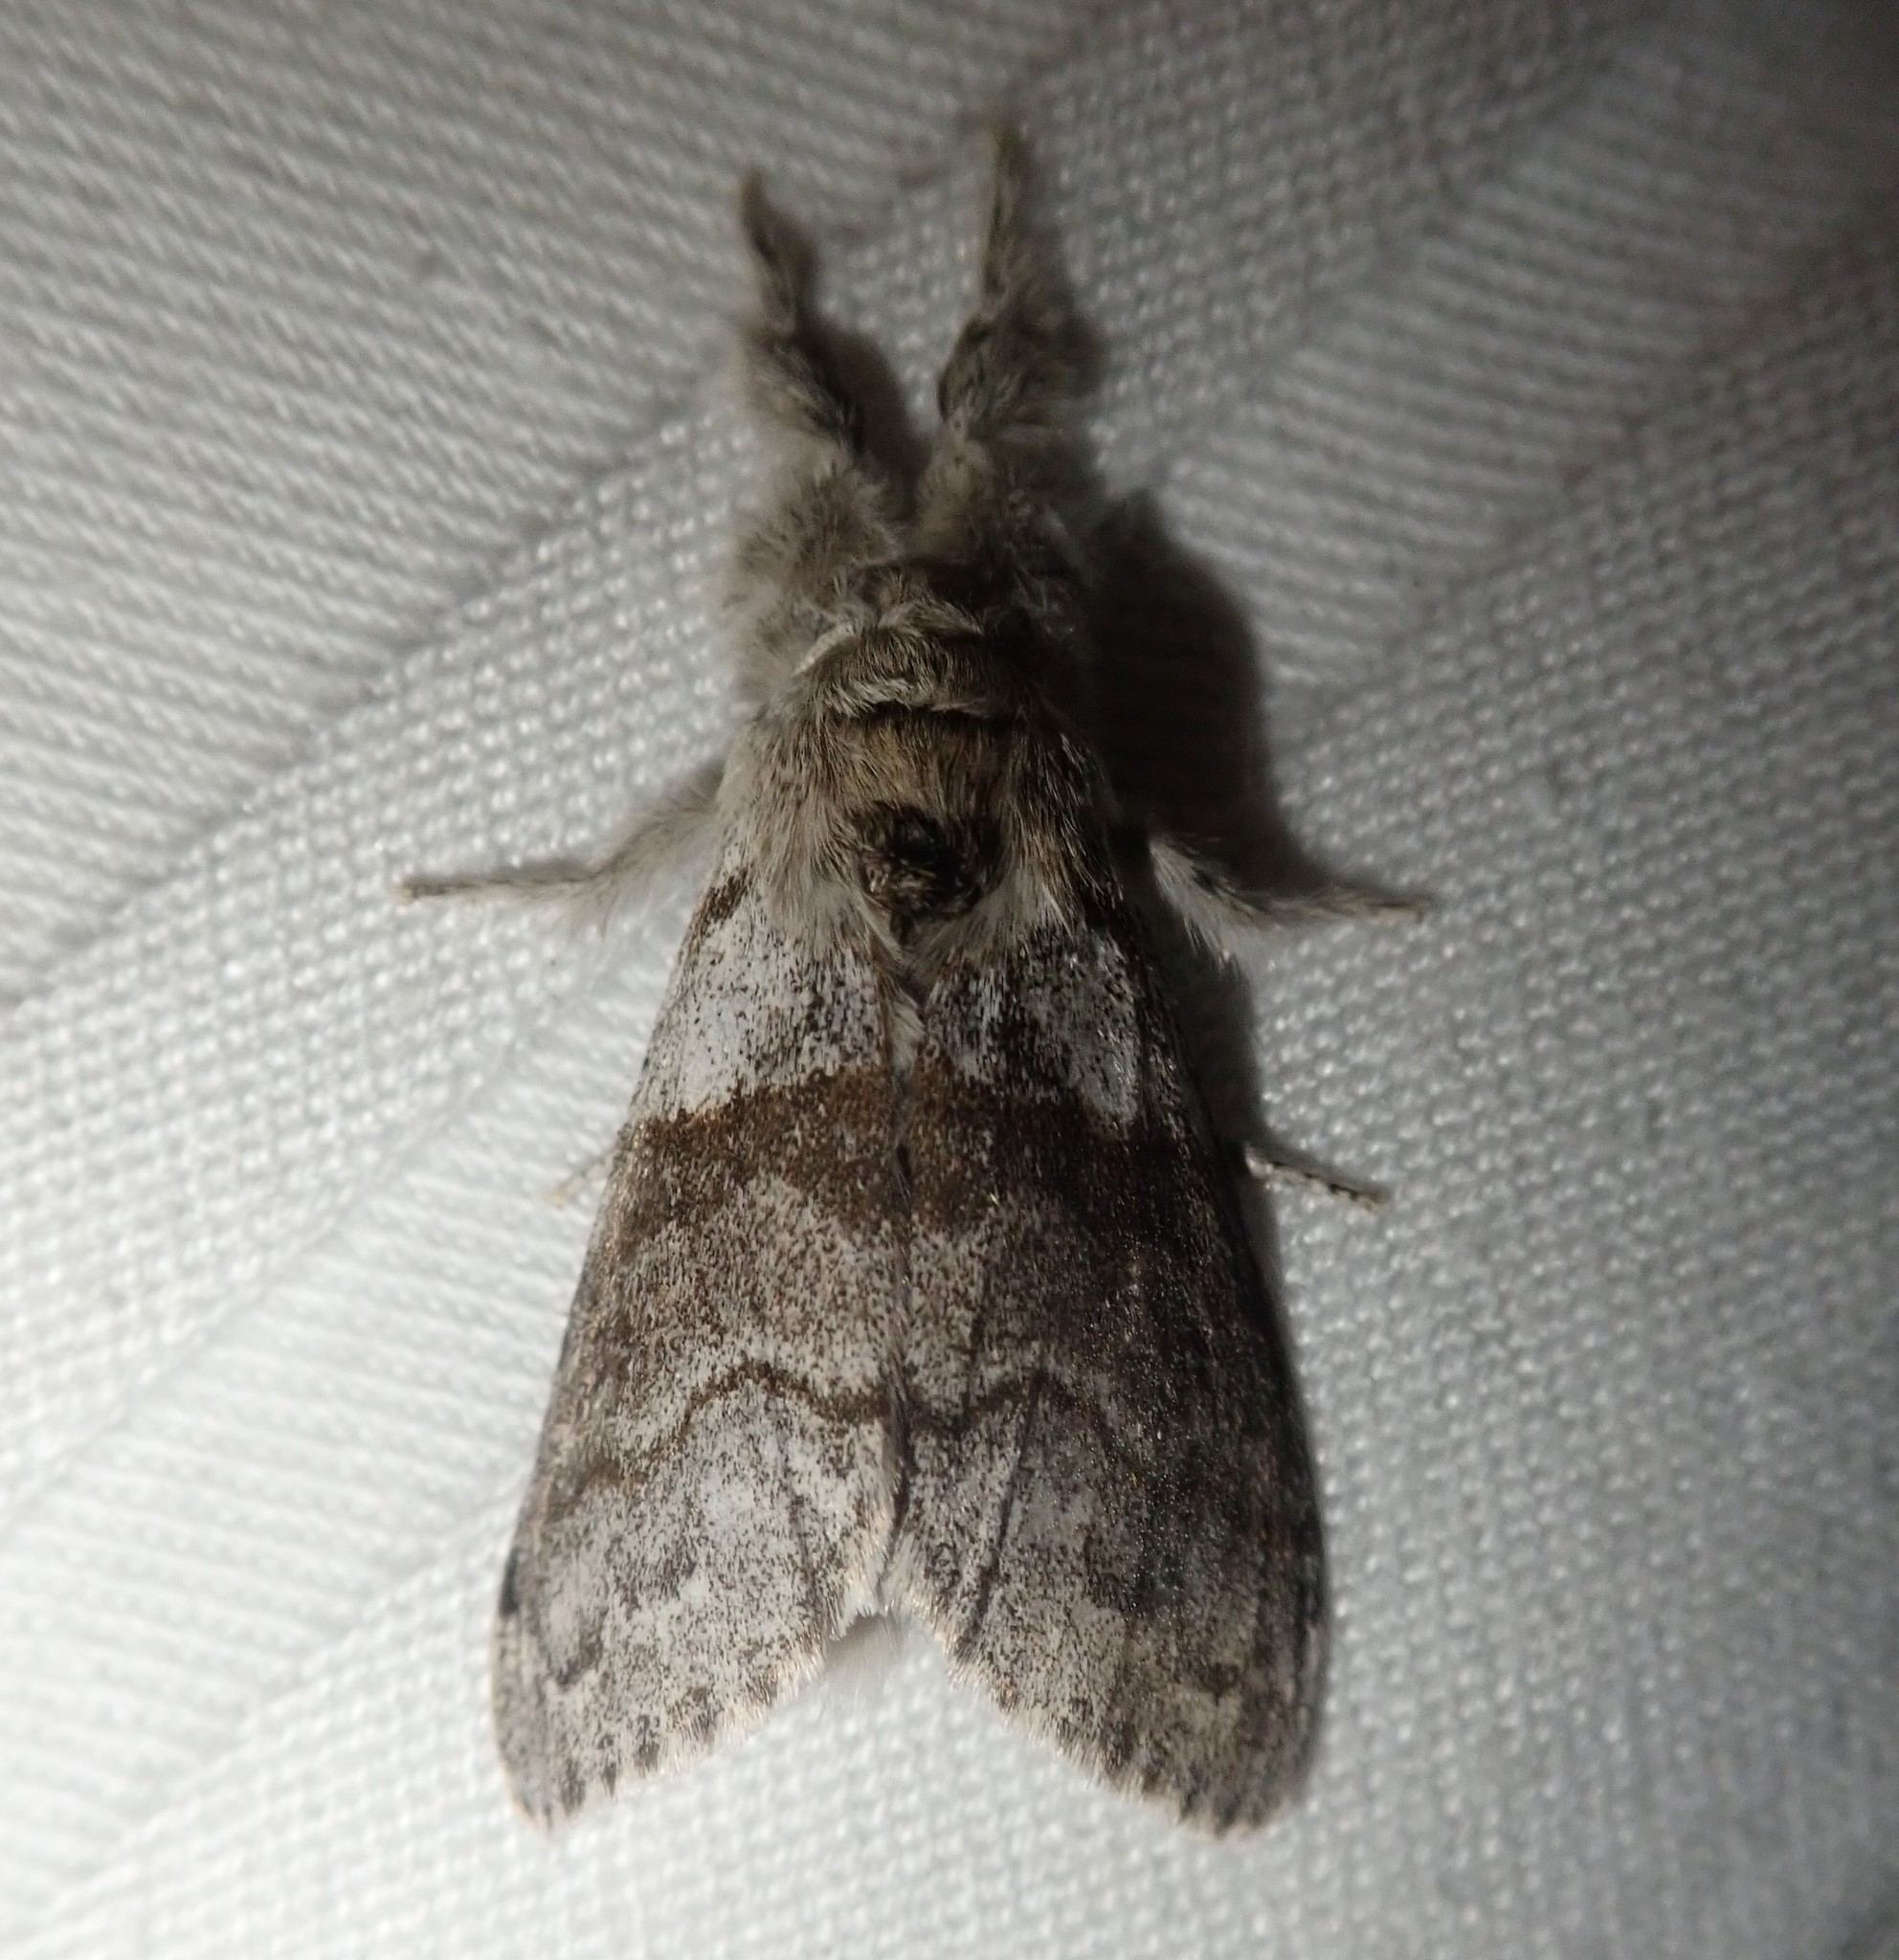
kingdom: Animalia
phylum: Arthropoda
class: Insecta
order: Lepidoptera
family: Erebidae
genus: Calliteara
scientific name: Calliteara pudibunda
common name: Pale tussock
